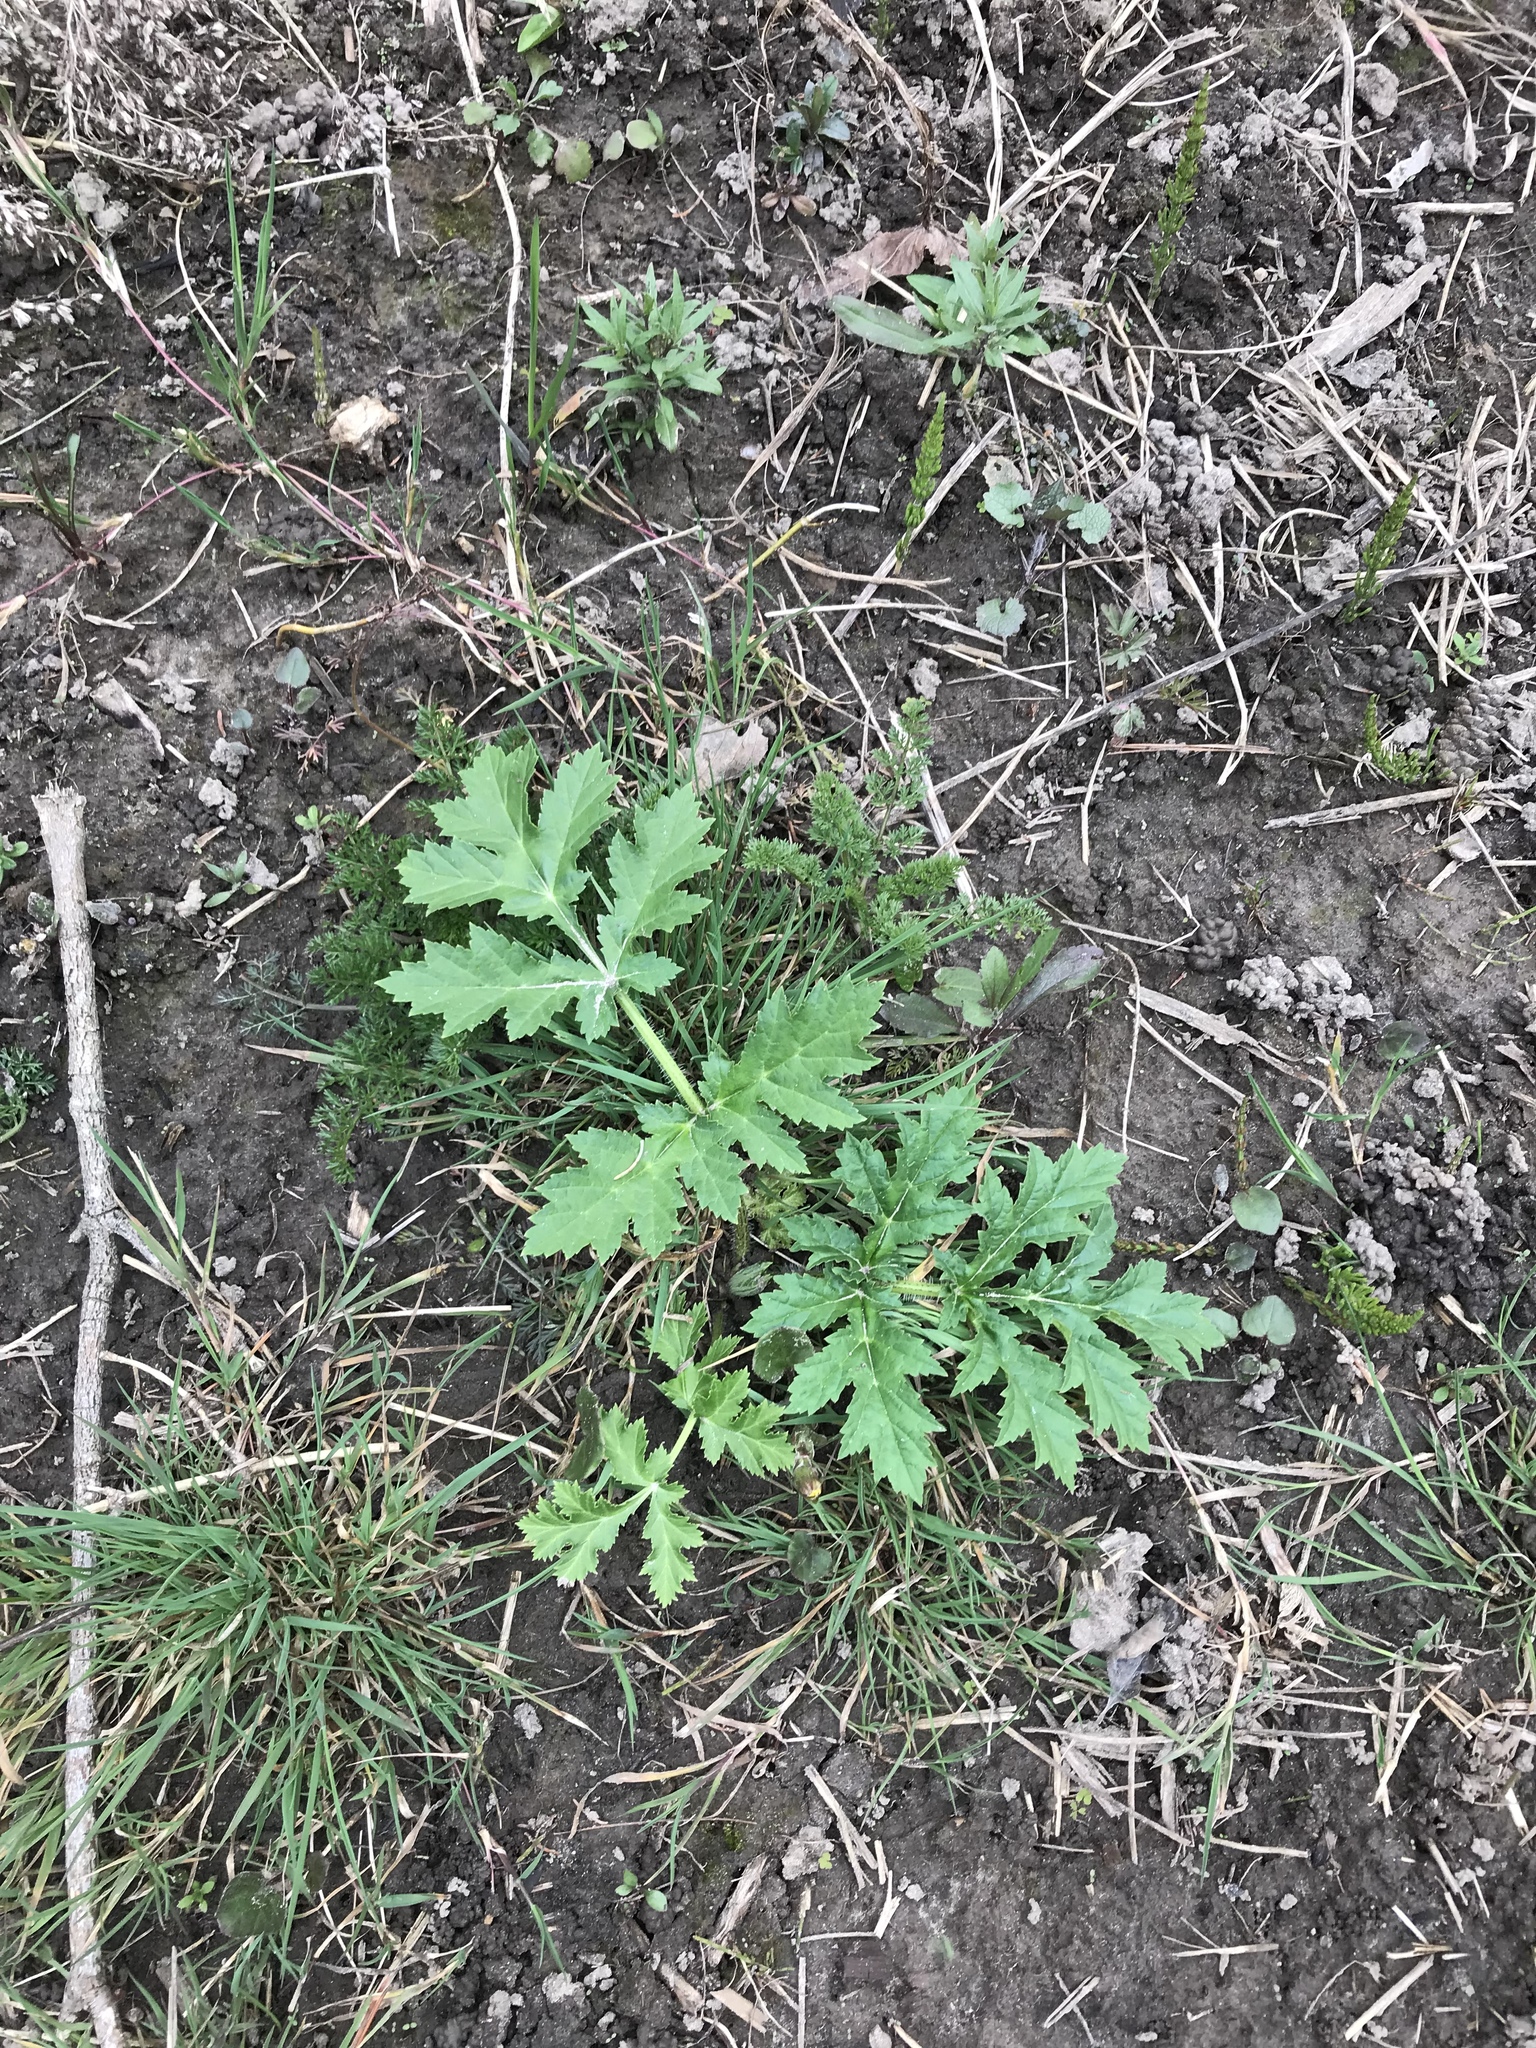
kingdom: Plantae
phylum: Tracheophyta
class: Magnoliopsida
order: Apiales
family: Apiaceae
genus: Heracleum
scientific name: Heracleum mantegazzianum
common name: Giant hogweed
